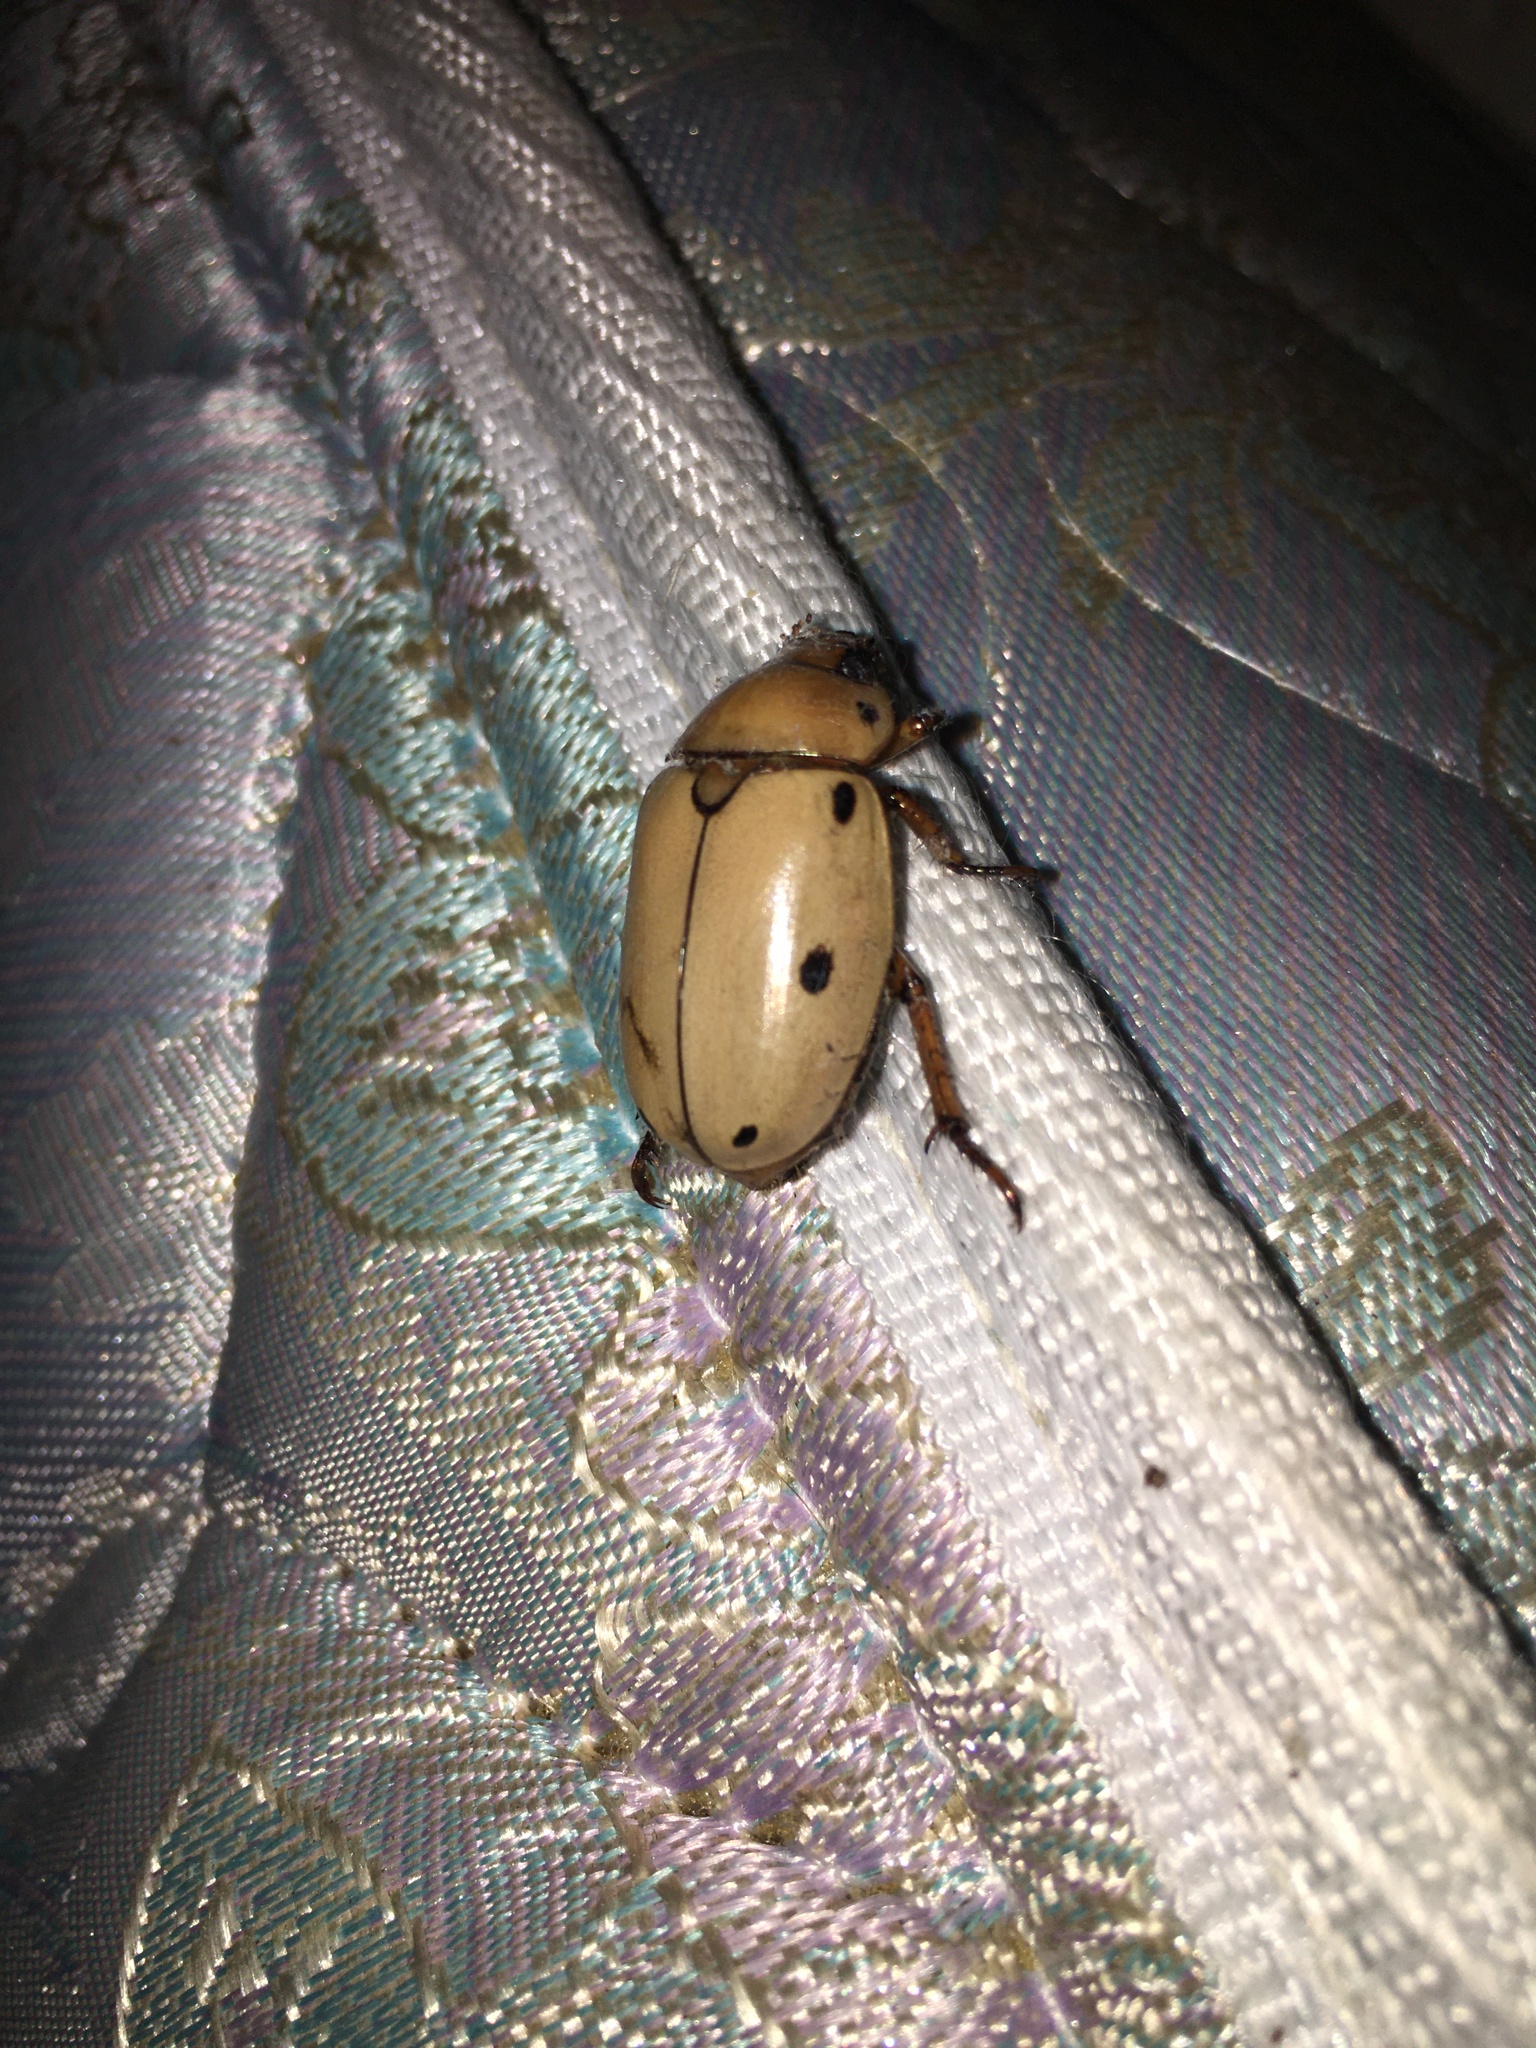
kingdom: Animalia
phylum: Arthropoda
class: Insecta
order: Coleoptera
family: Scarabaeidae
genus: Pelidnota
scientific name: Pelidnota punctata
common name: Grapevine beetle
